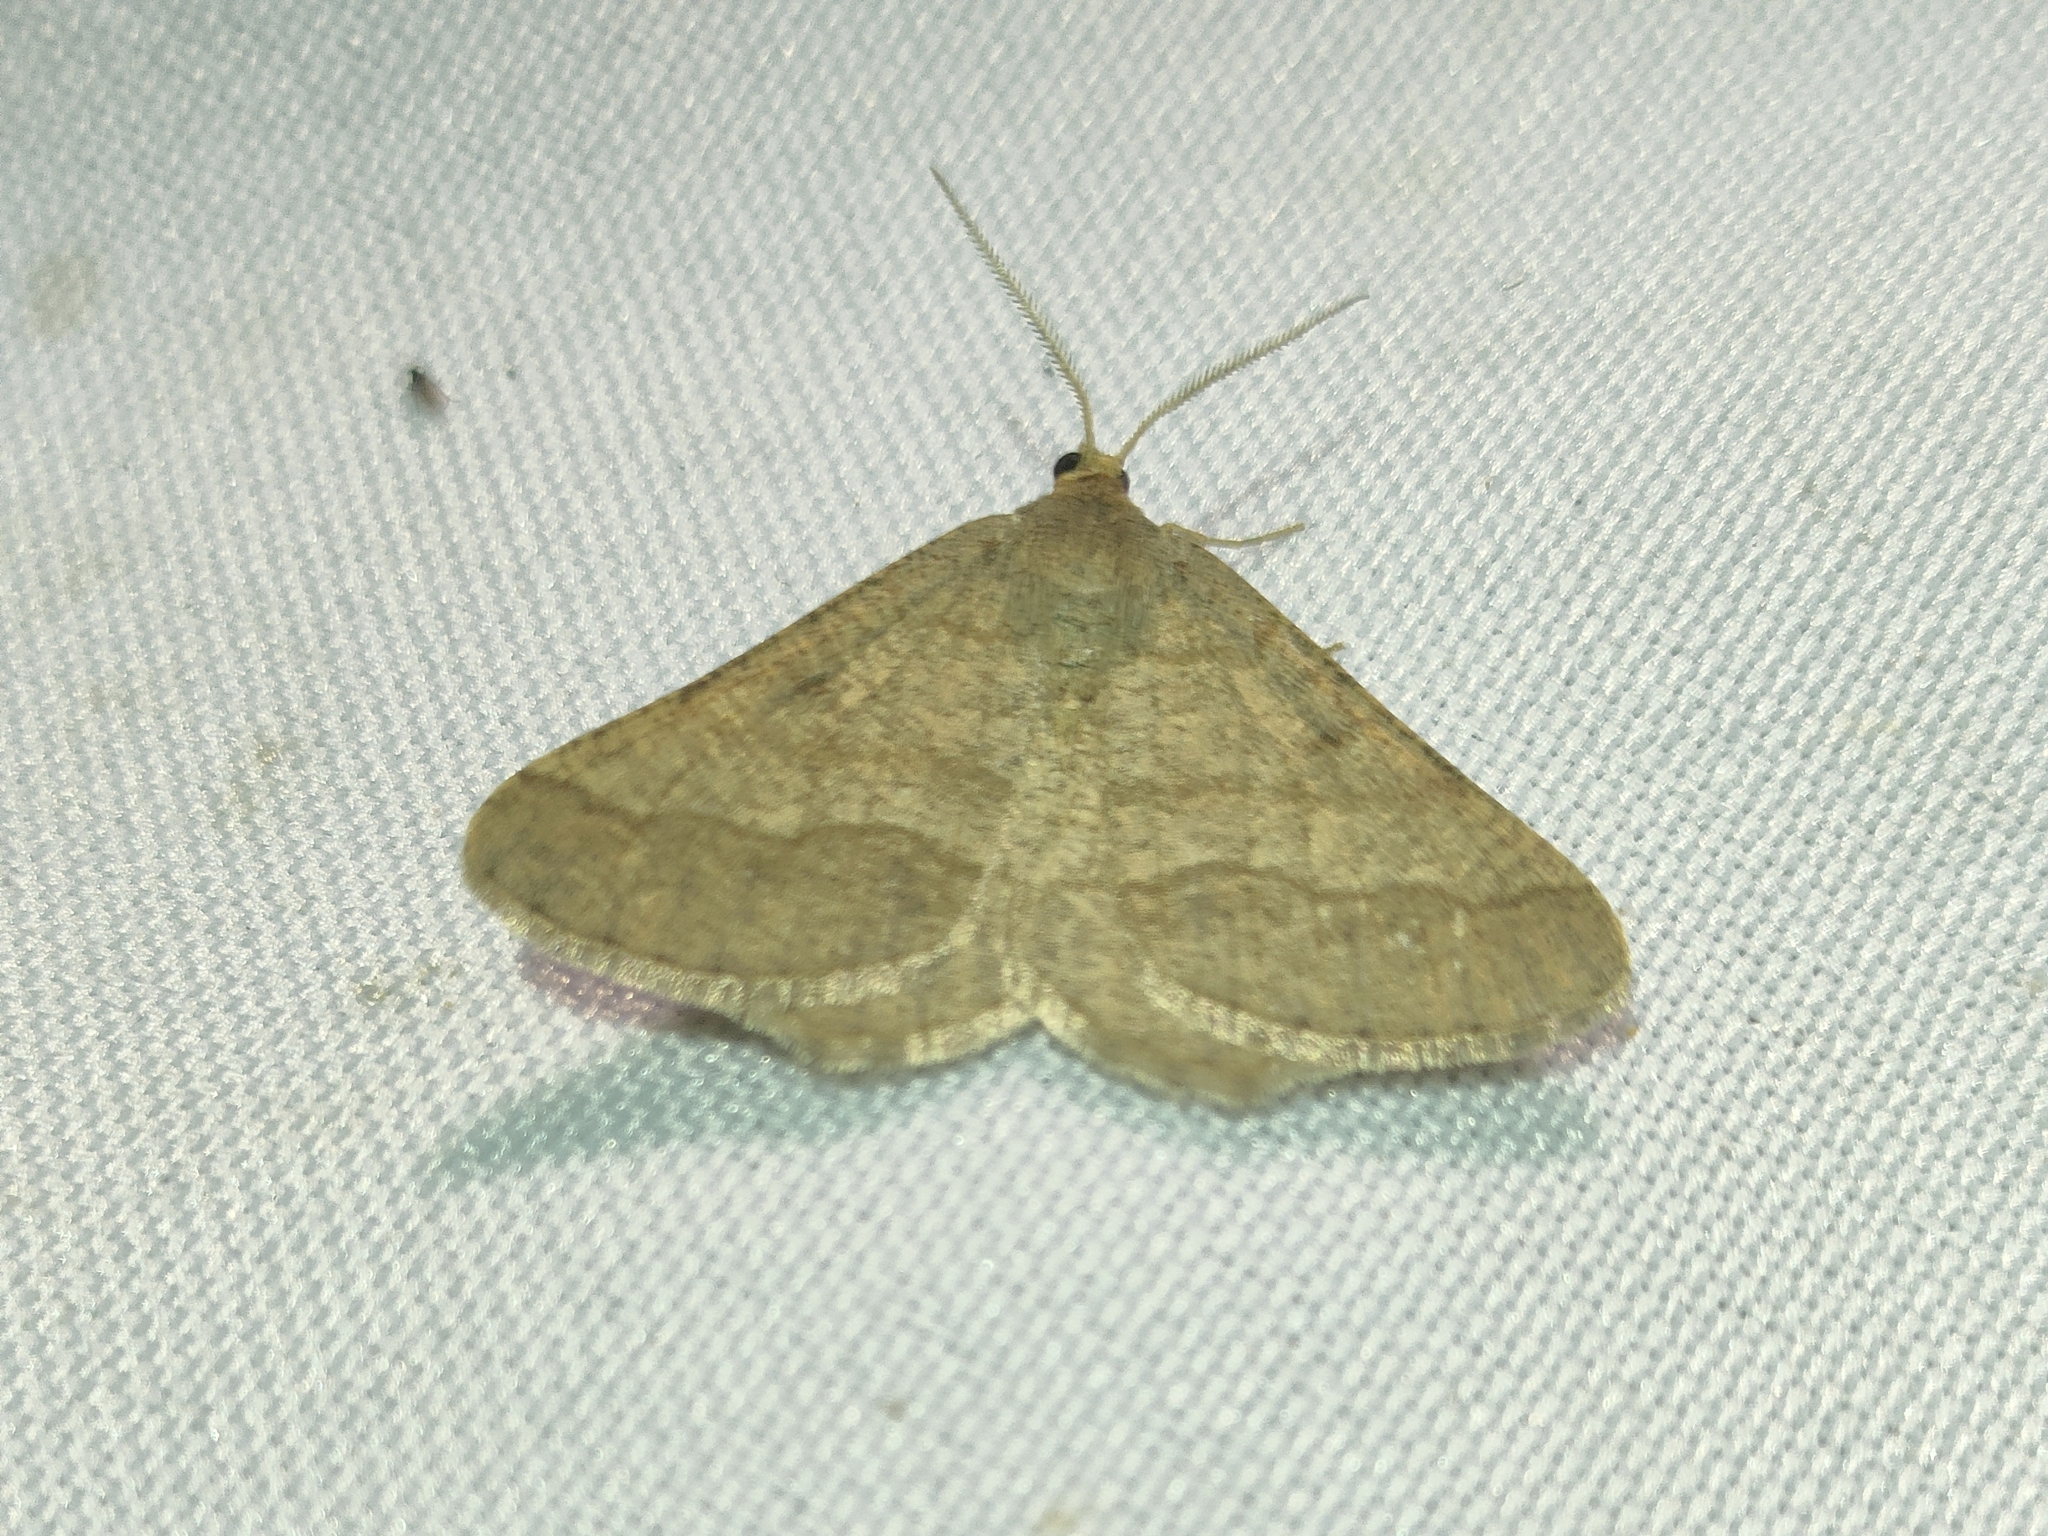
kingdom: Animalia
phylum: Arthropoda
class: Insecta
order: Lepidoptera
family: Geometridae
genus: Tephrina
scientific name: Tephrina murinaria
